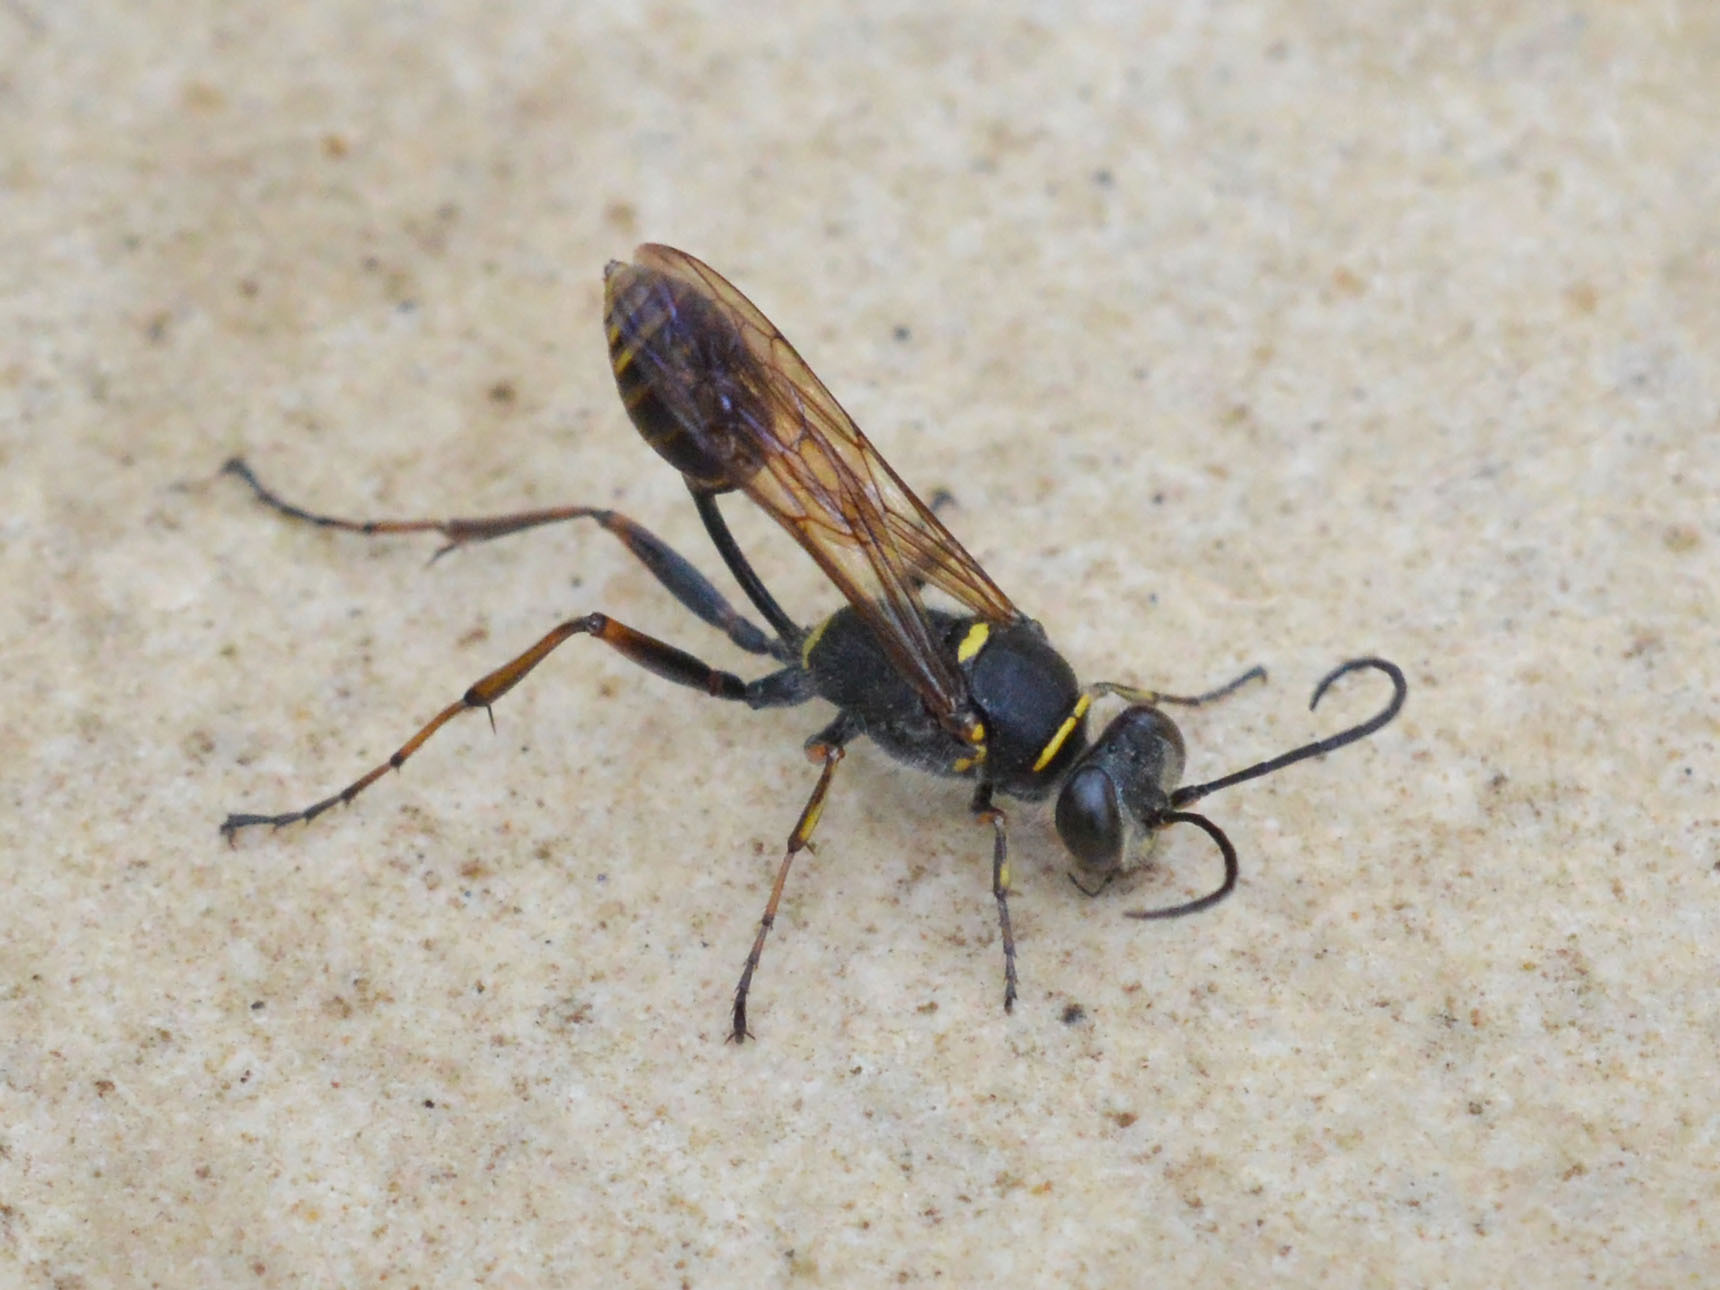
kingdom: Animalia
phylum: Arthropoda
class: Insecta
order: Hymenoptera
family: Sphecidae
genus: Sceliphron
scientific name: Sceliphron curvatum
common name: Pèlopèe
